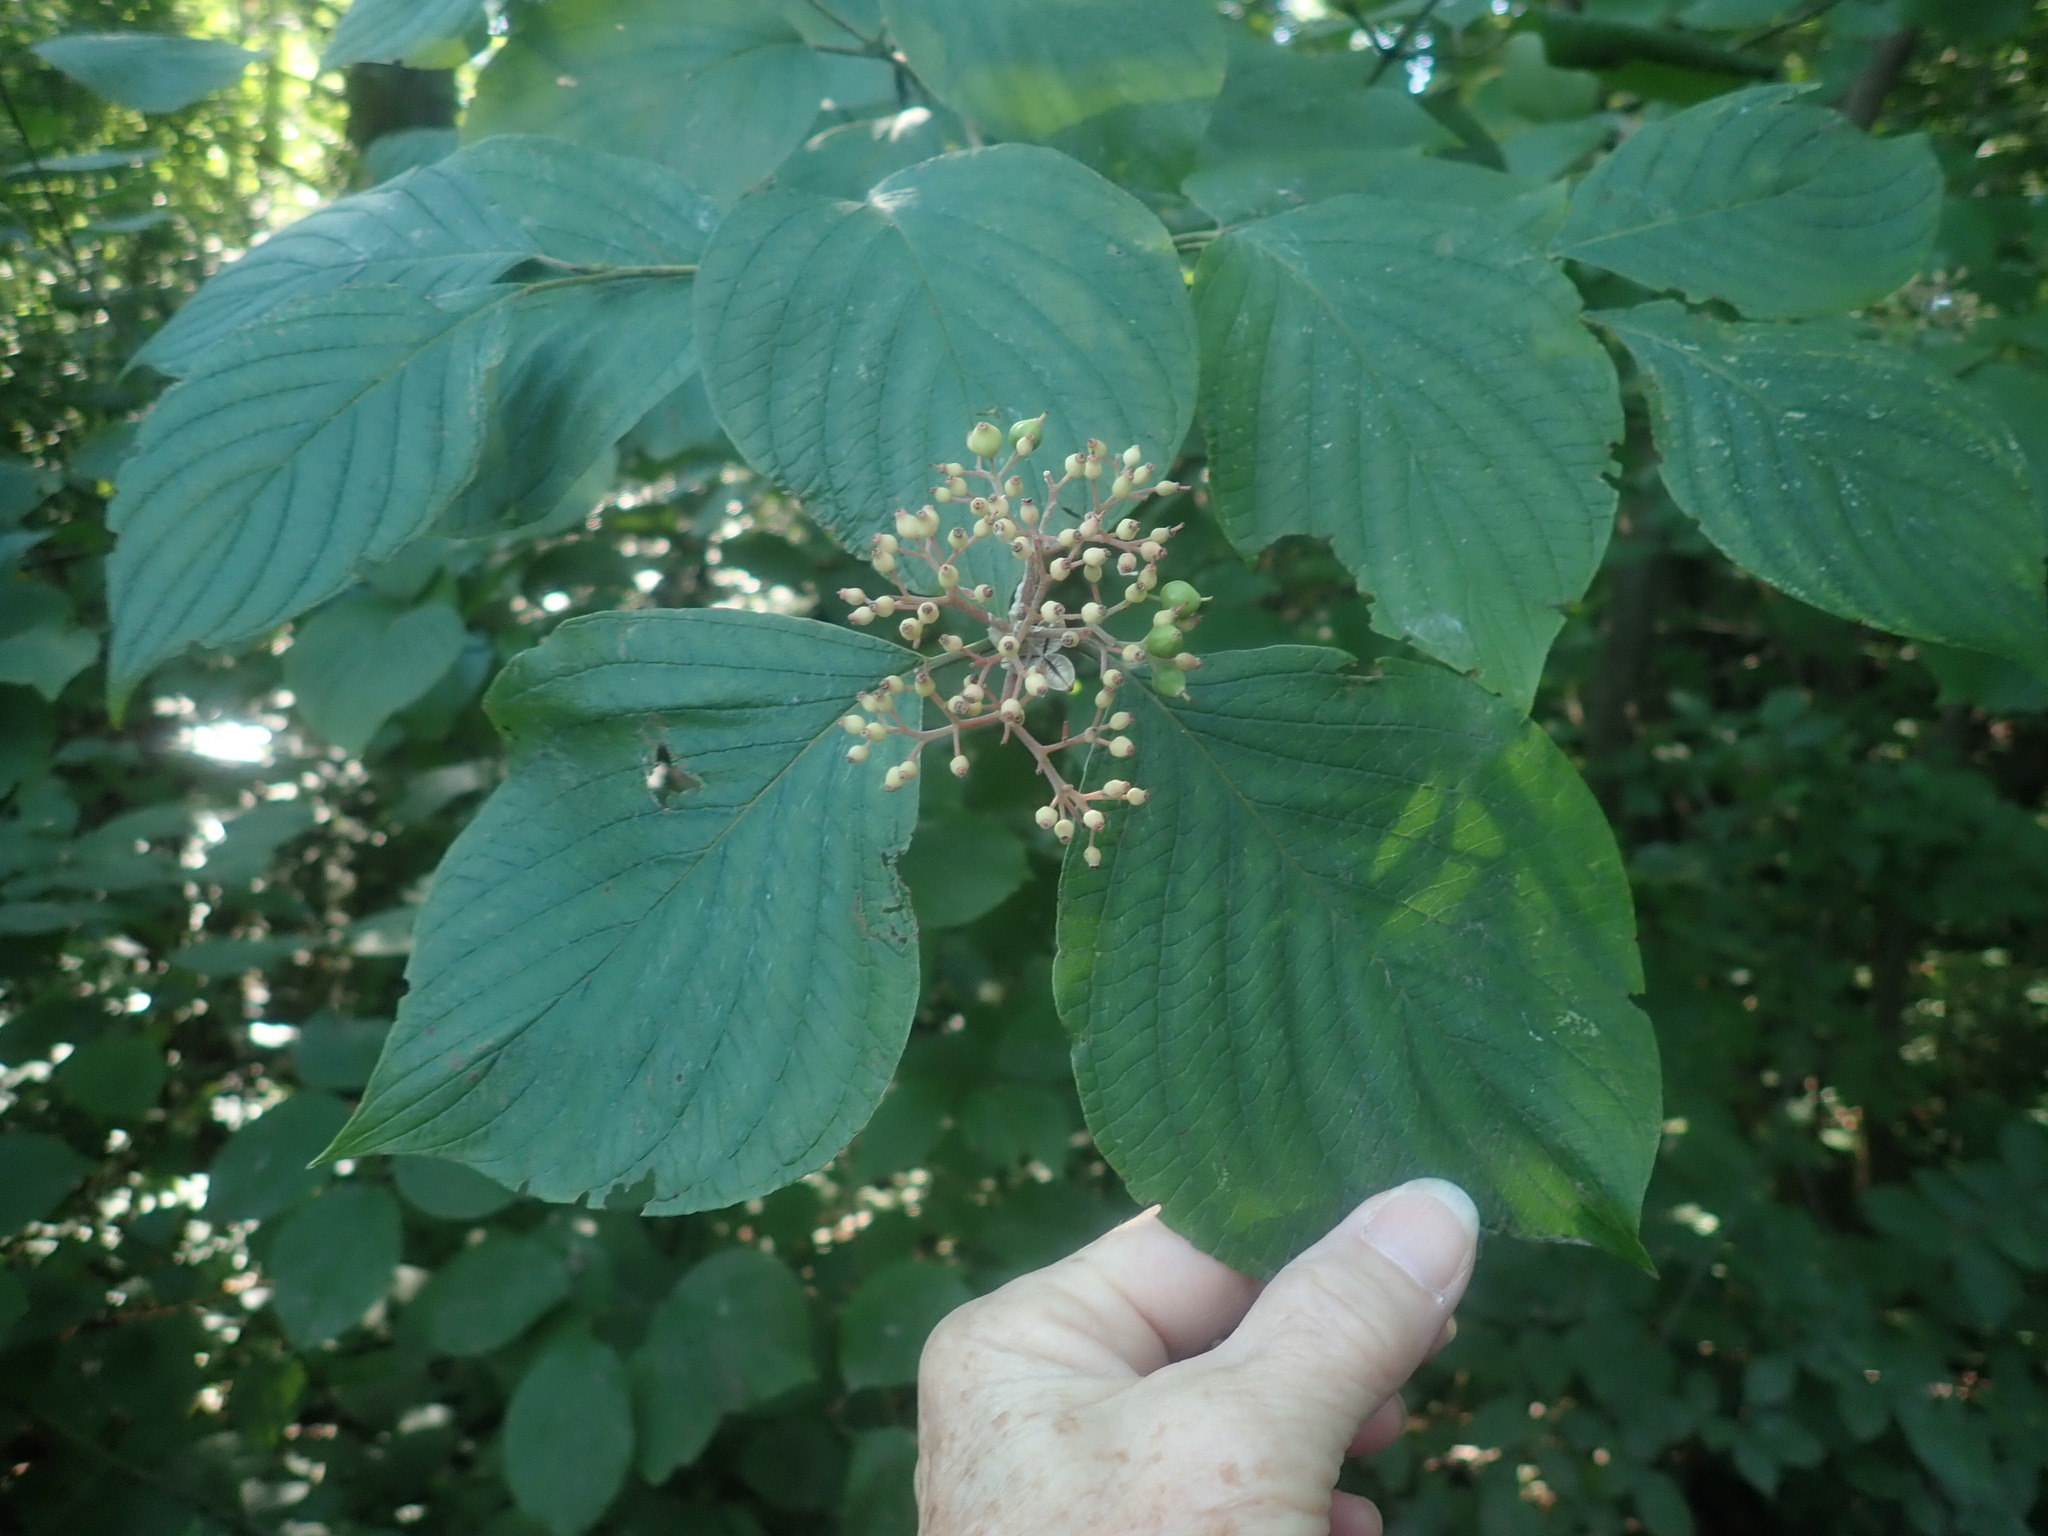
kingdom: Plantae
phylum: Tracheophyta
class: Magnoliopsida
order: Cornales
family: Cornaceae
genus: Cornus
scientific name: Cornus rugosa
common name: Round-leaf dogwood
